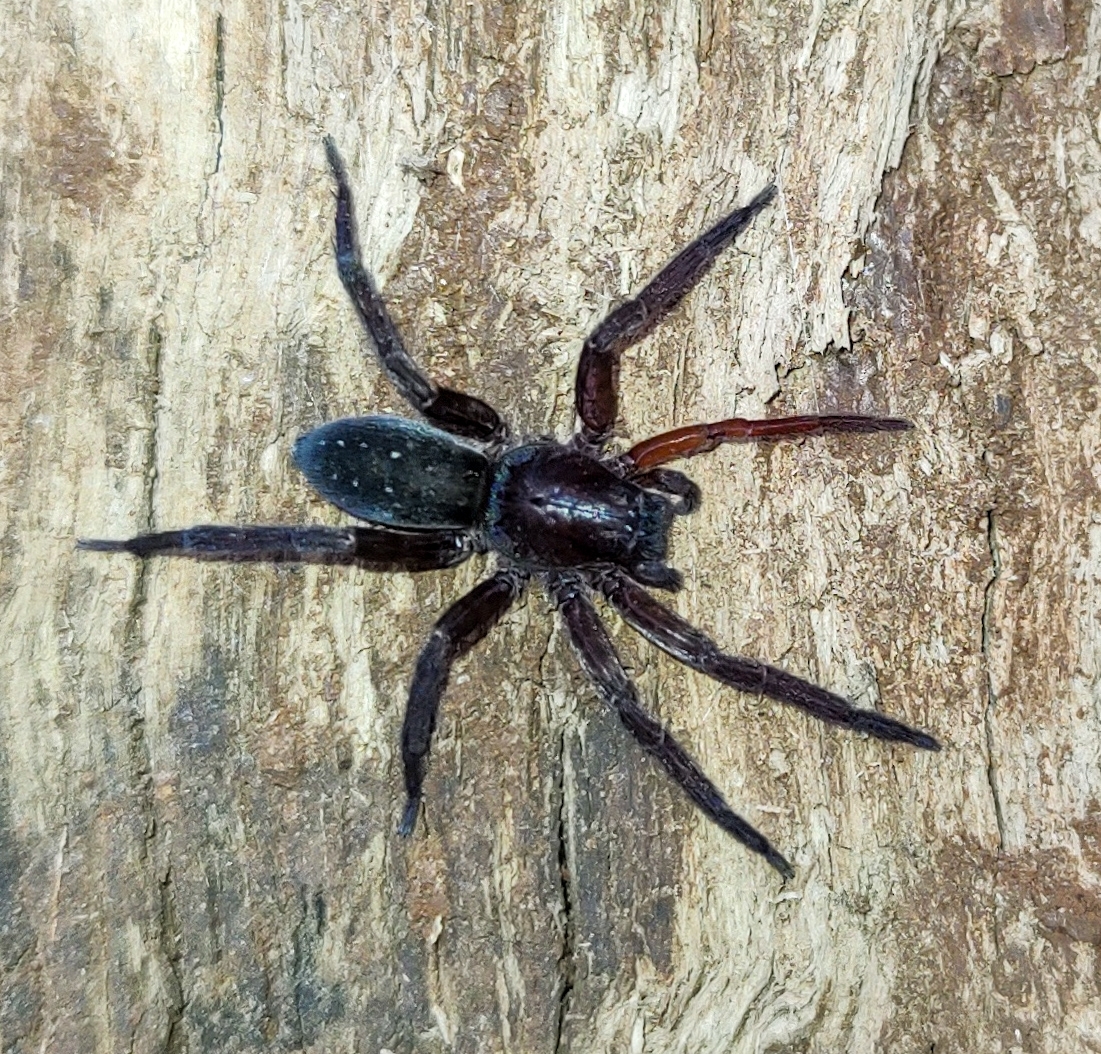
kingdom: Animalia
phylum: Arthropoda
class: Arachnida
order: Araneae
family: Ctenidae
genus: Asthenoctenus
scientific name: Asthenoctenus borellii
